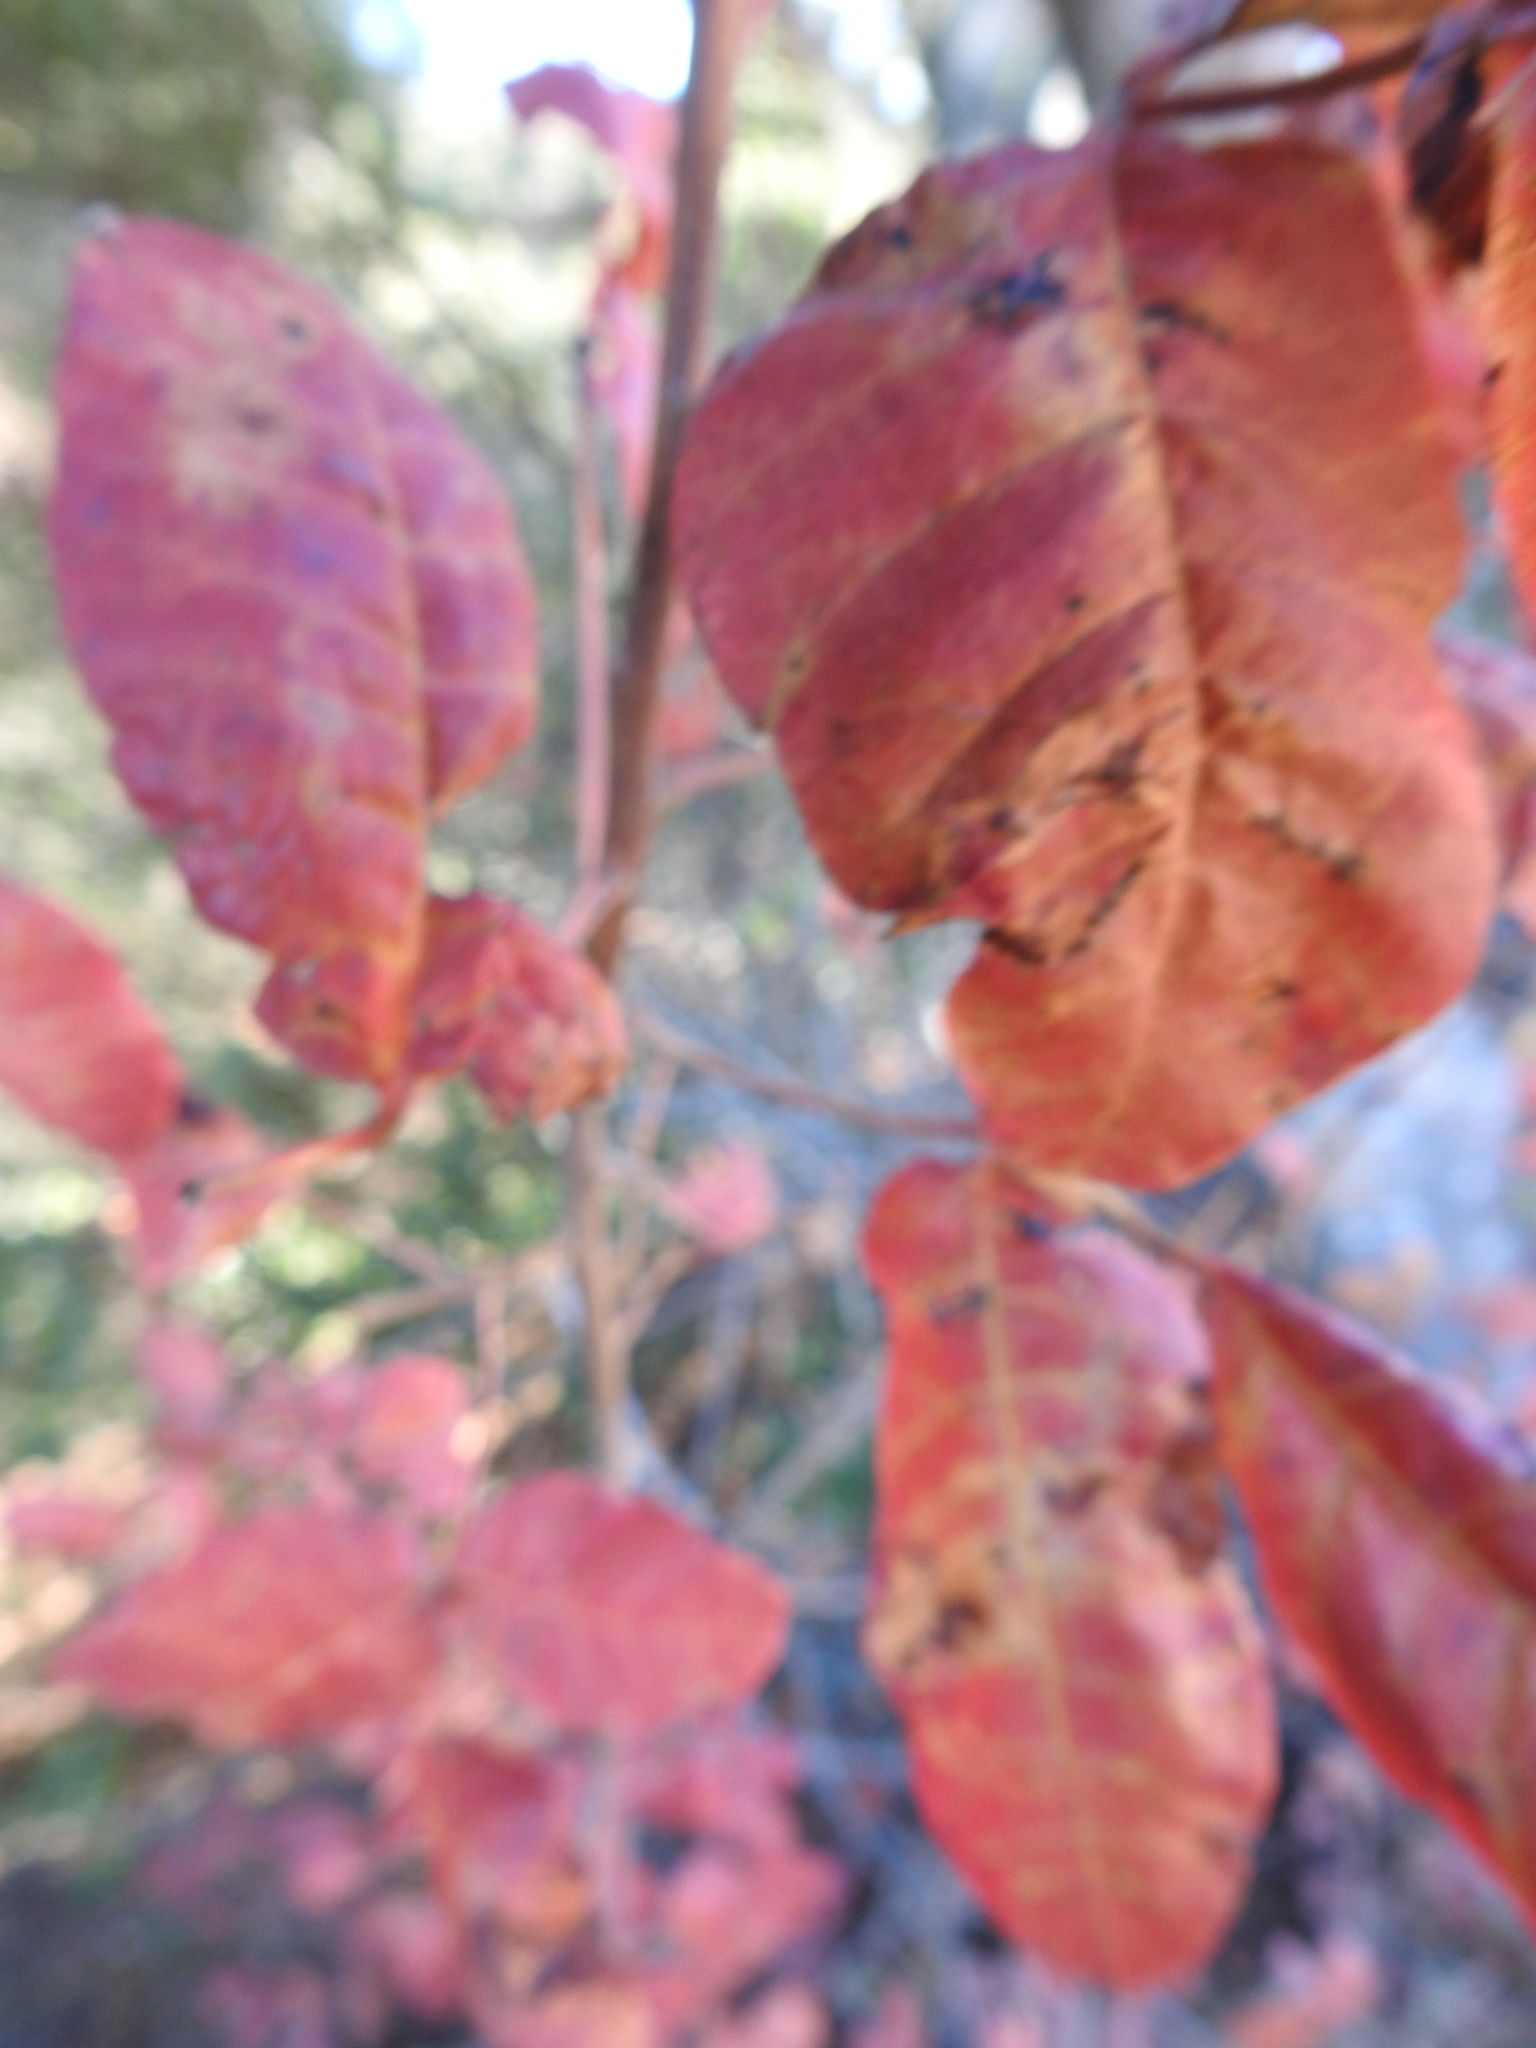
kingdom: Plantae
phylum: Tracheophyta
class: Magnoliopsida
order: Sapindales
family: Anacardiaceae
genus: Toxicodendron
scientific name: Toxicodendron diversilobum
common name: Pacific poison-oak
